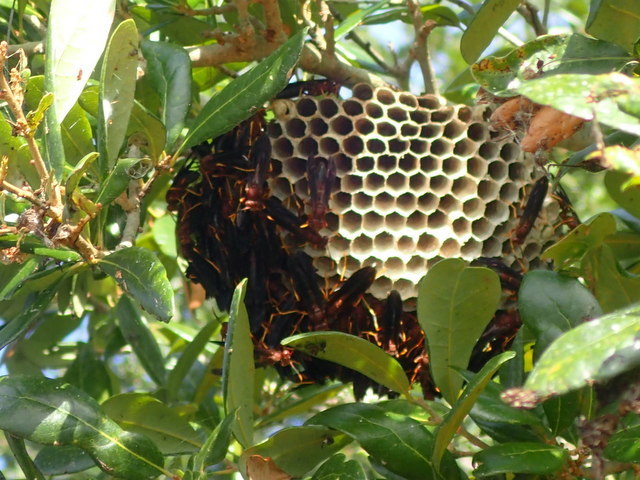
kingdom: Animalia
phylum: Arthropoda
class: Insecta
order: Hymenoptera
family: Eumenidae
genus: Polistes
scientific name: Polistes annularis
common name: Ringed paper wasp
